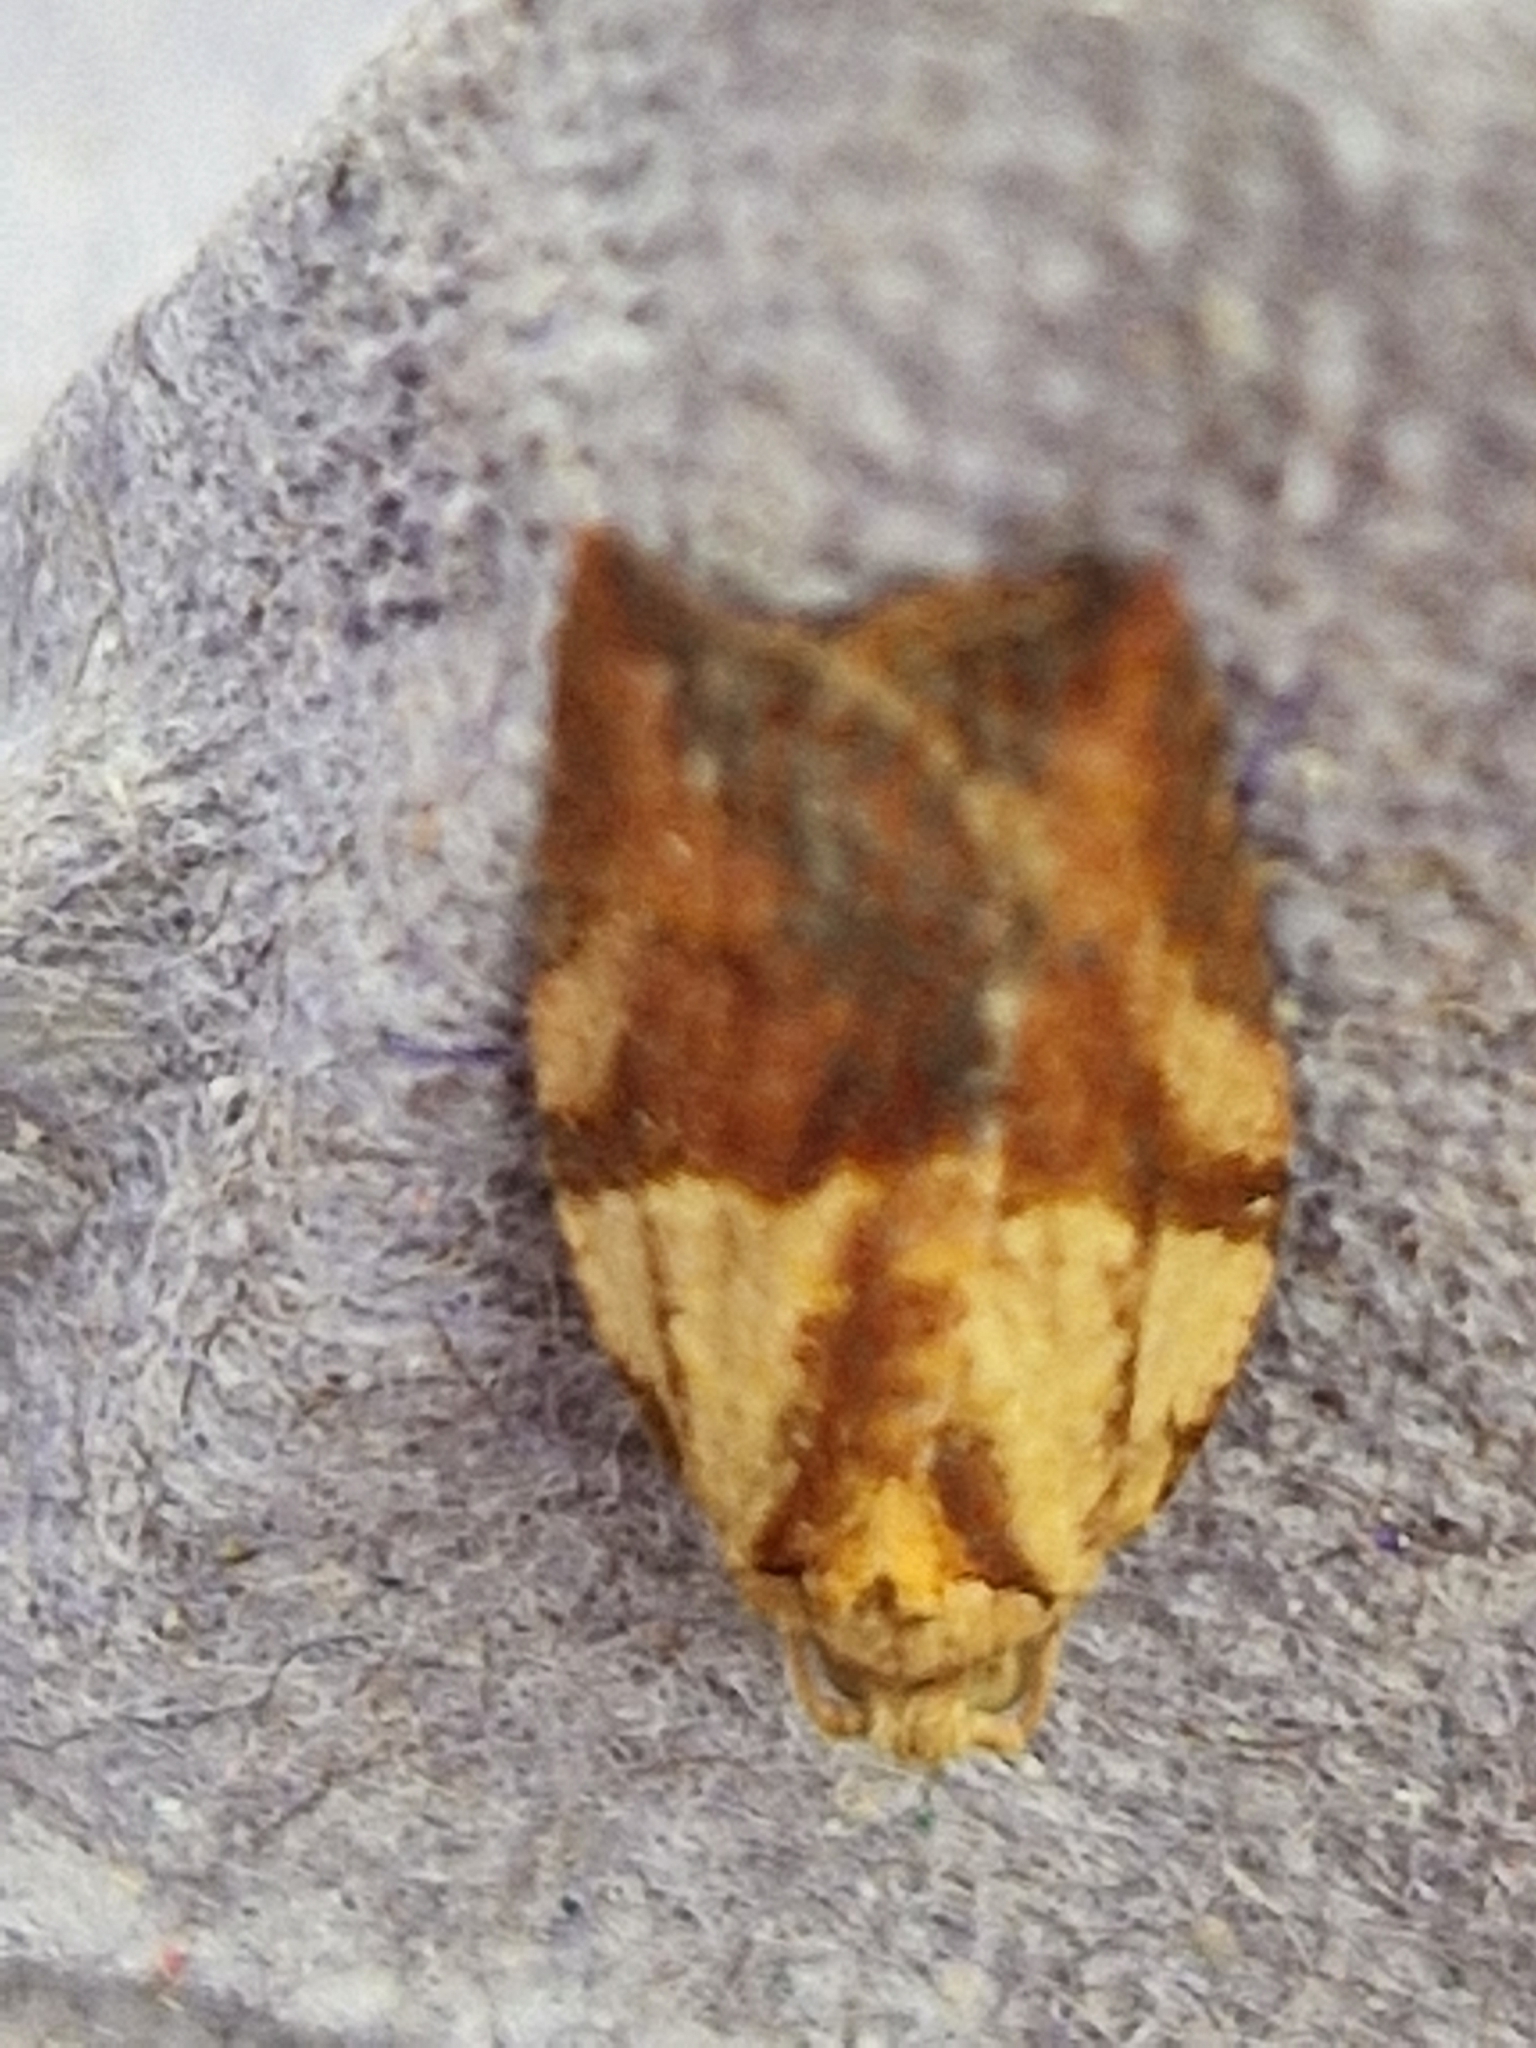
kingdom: Animalia
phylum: Arthropoda
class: Insecta
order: Lepidoptera
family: Tortricidae
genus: Epiphyas
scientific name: Epiphyas postvittana
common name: Light brown apple moth
